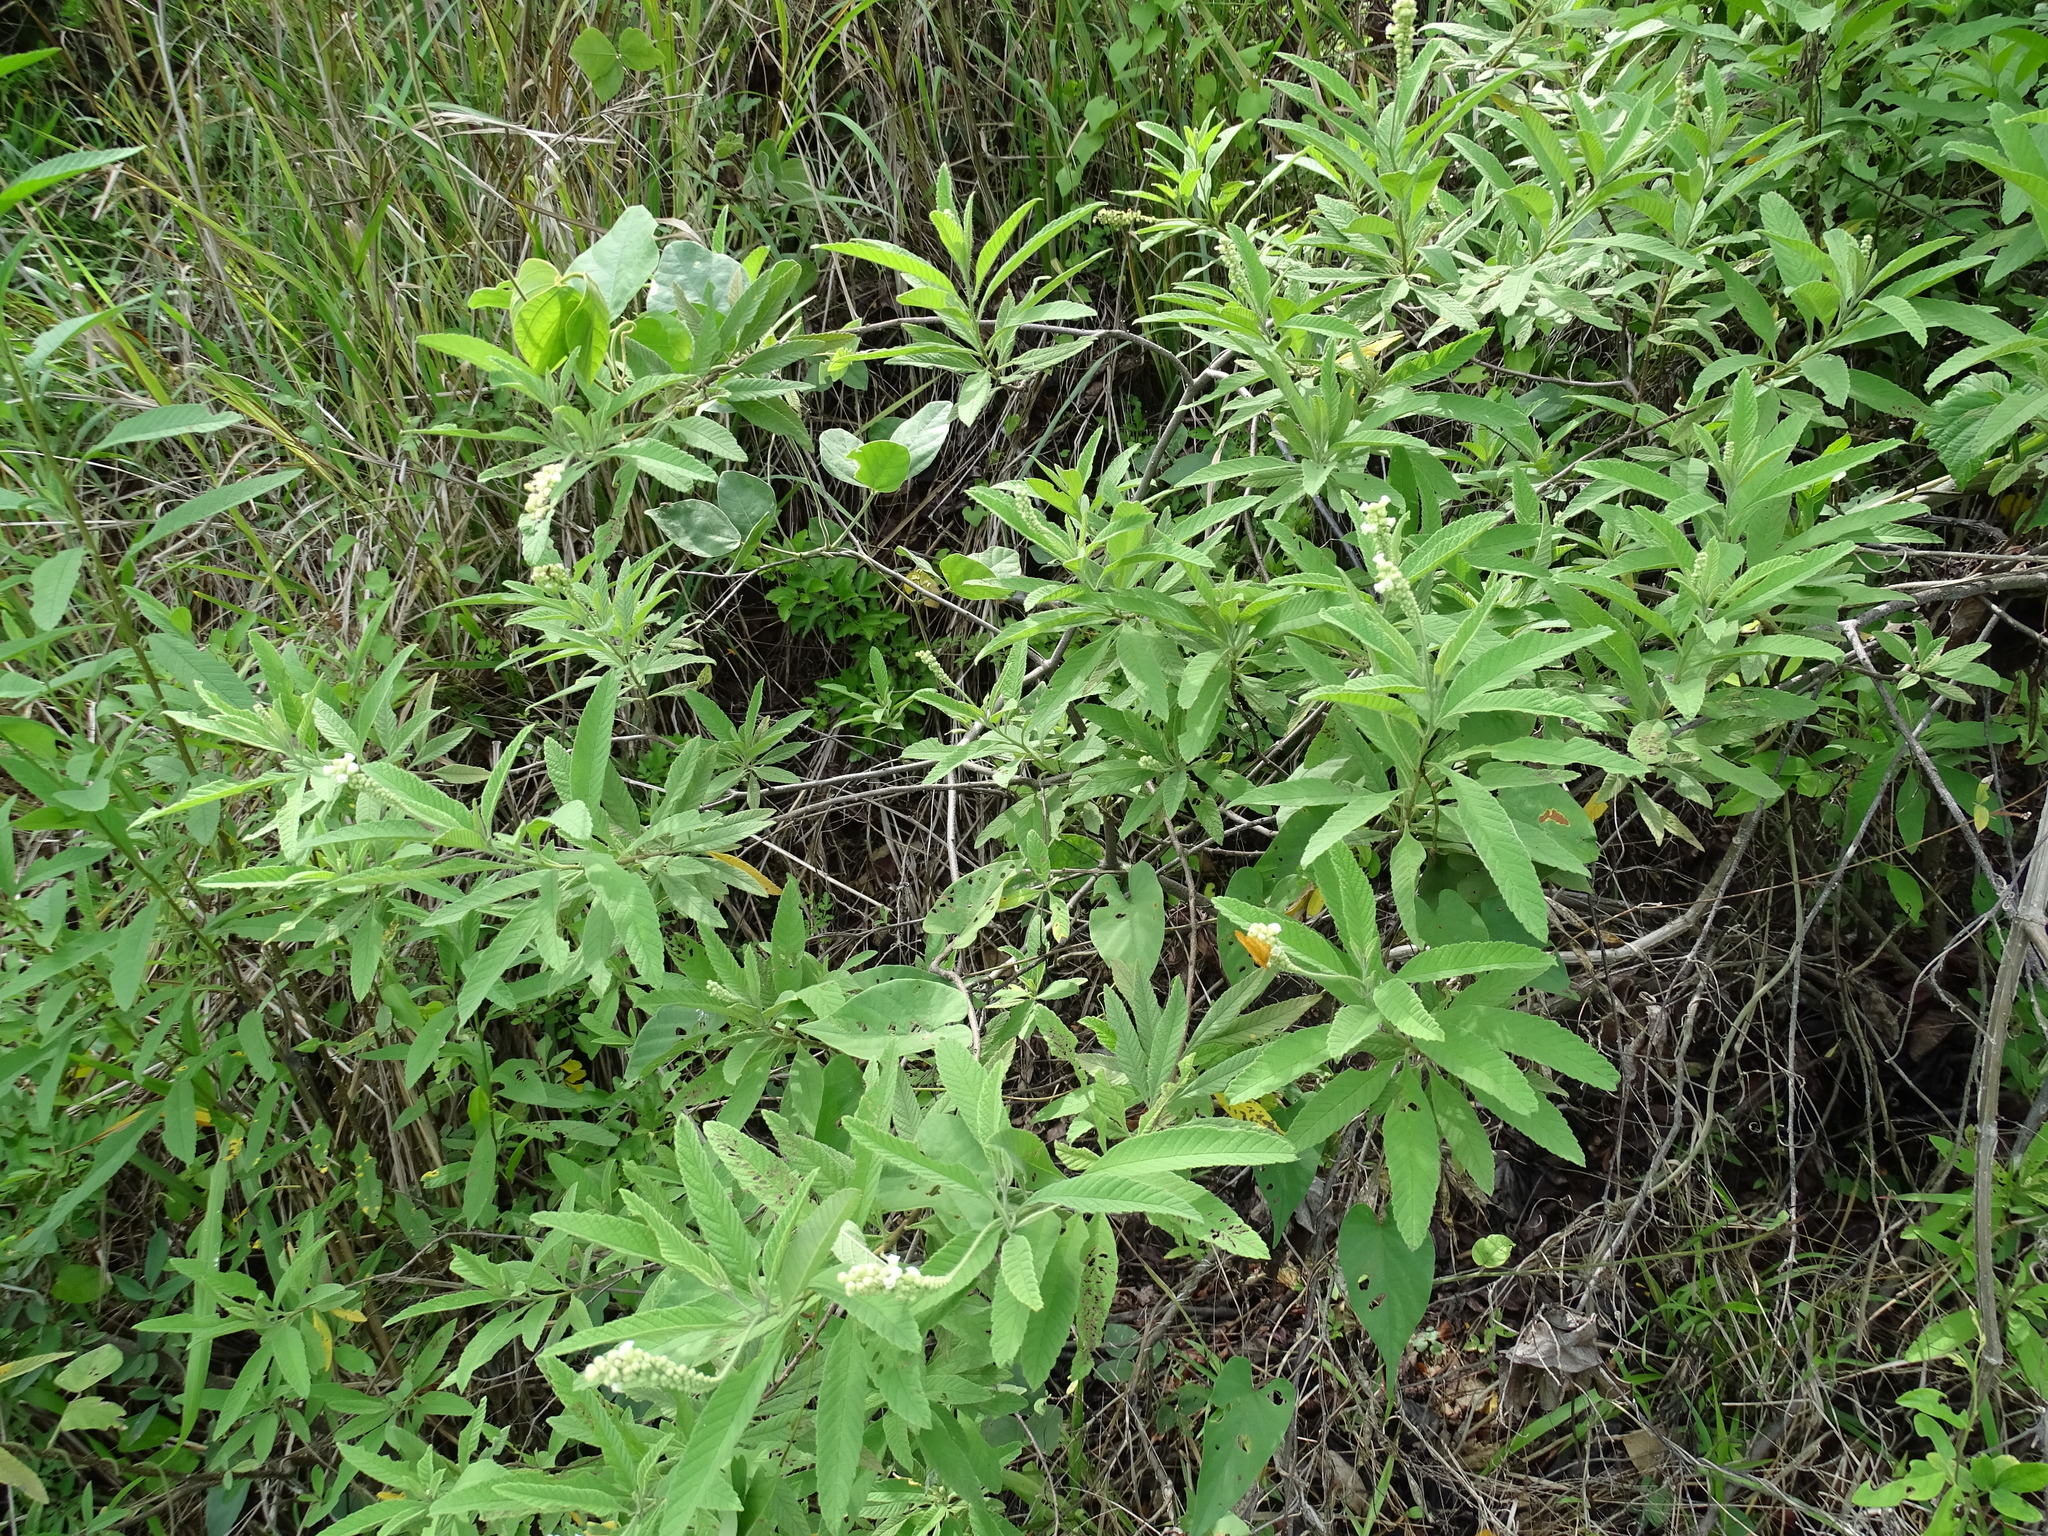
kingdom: Plantae
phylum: Tracheophyta
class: Magnoliopsida
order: Boraginales
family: Cordiaceae
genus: Varronia
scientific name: Varronia curassavica
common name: Black sage
